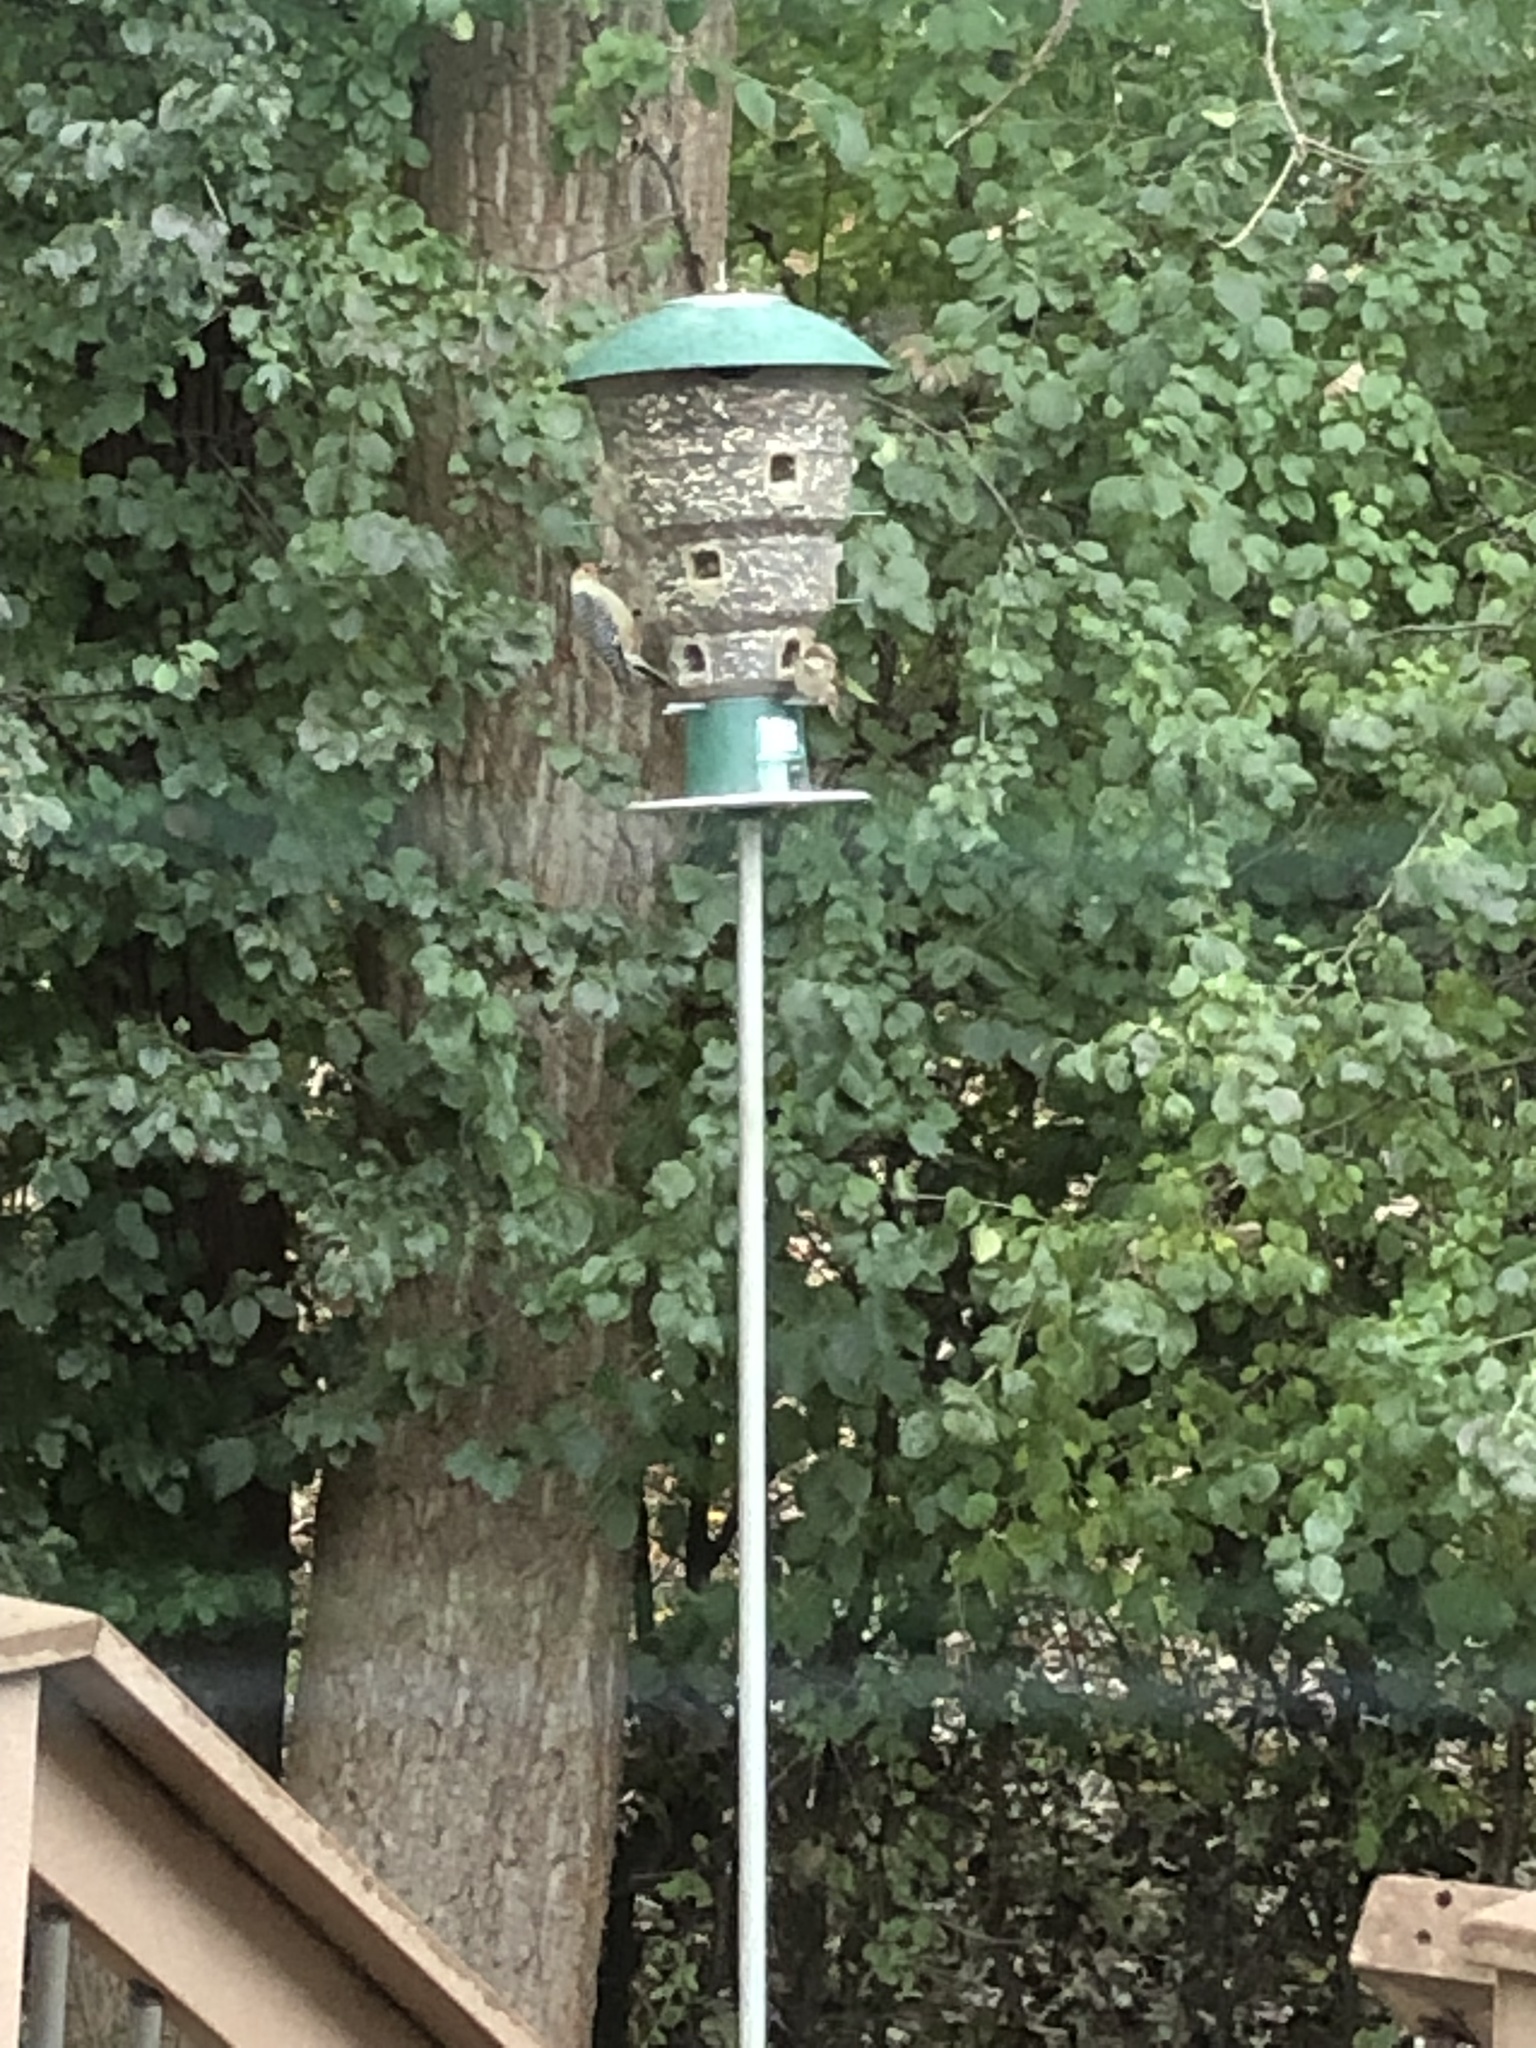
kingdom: Animalia
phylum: Chordata
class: Aves
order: Piciformes
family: Picidae
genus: Melanerpes
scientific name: Melanerpes carolinus
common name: Red-bellied woodpecker
